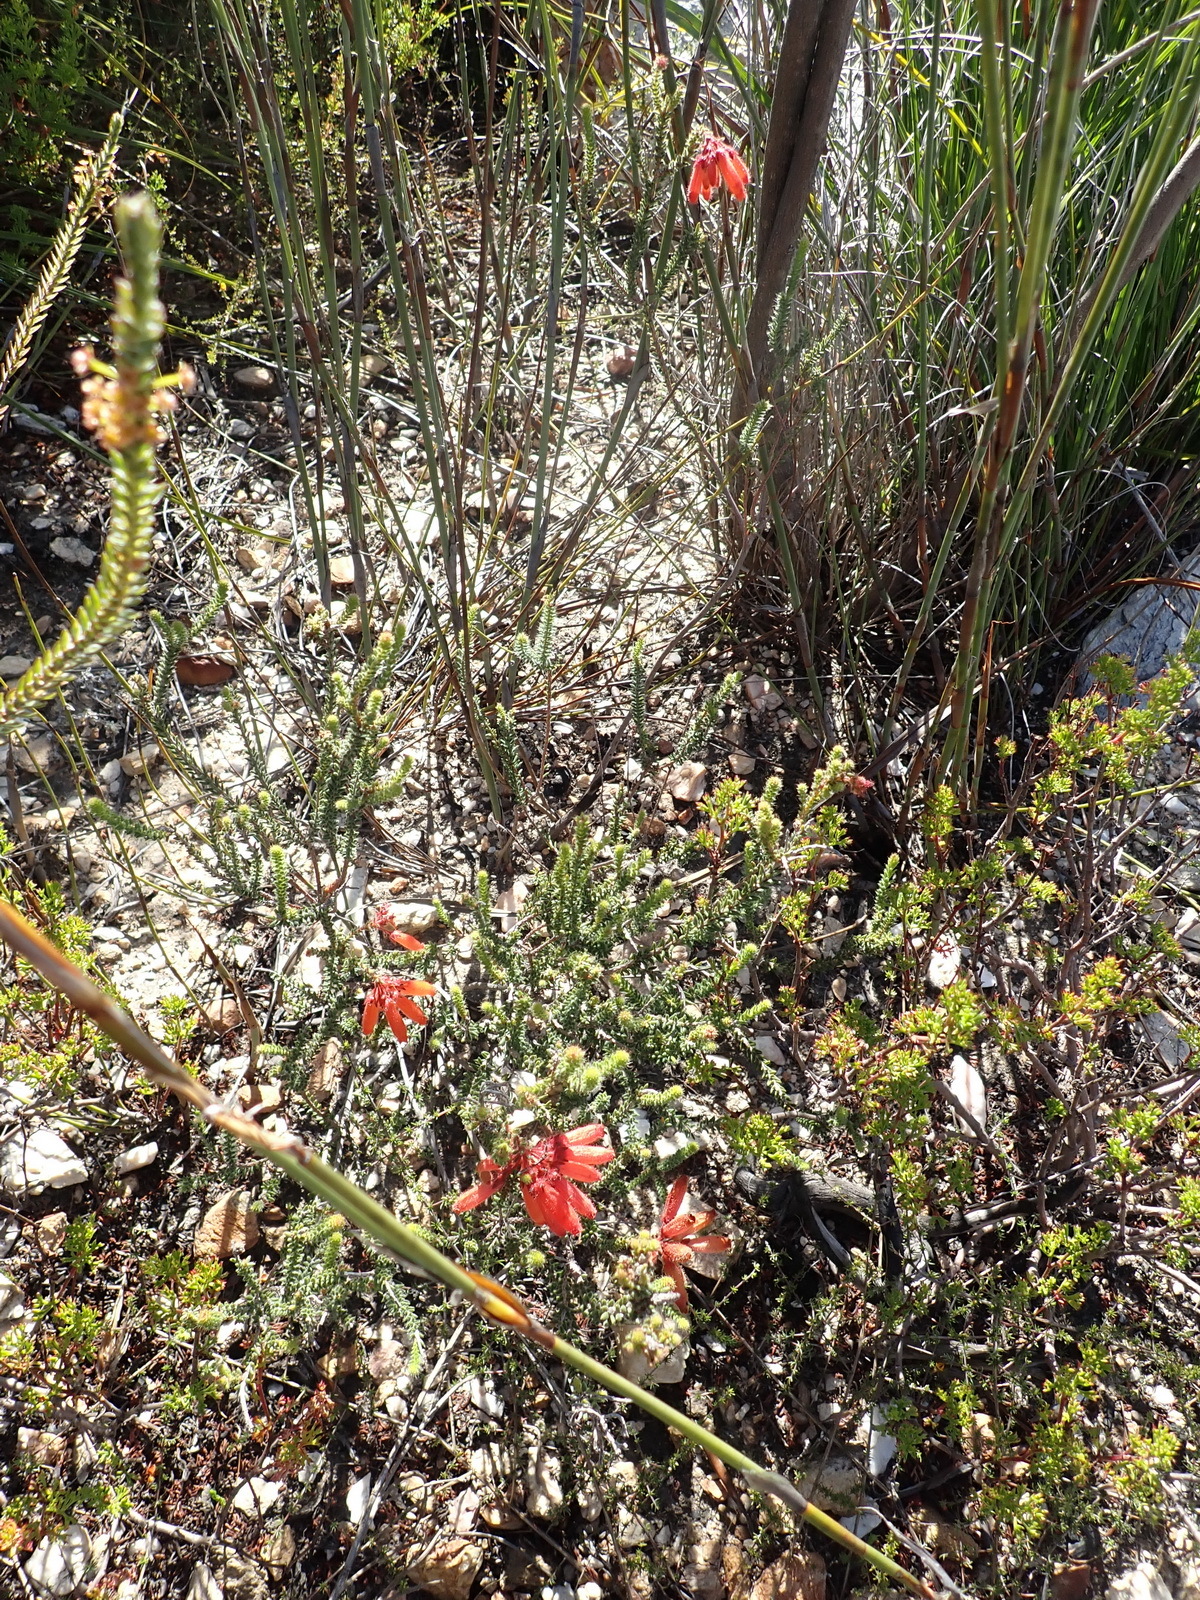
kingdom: Plantae
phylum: Tracheophyta
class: Magnoliopsida
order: Ericales
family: Ericaceae
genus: Erica
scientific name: Erica cerinthoides
